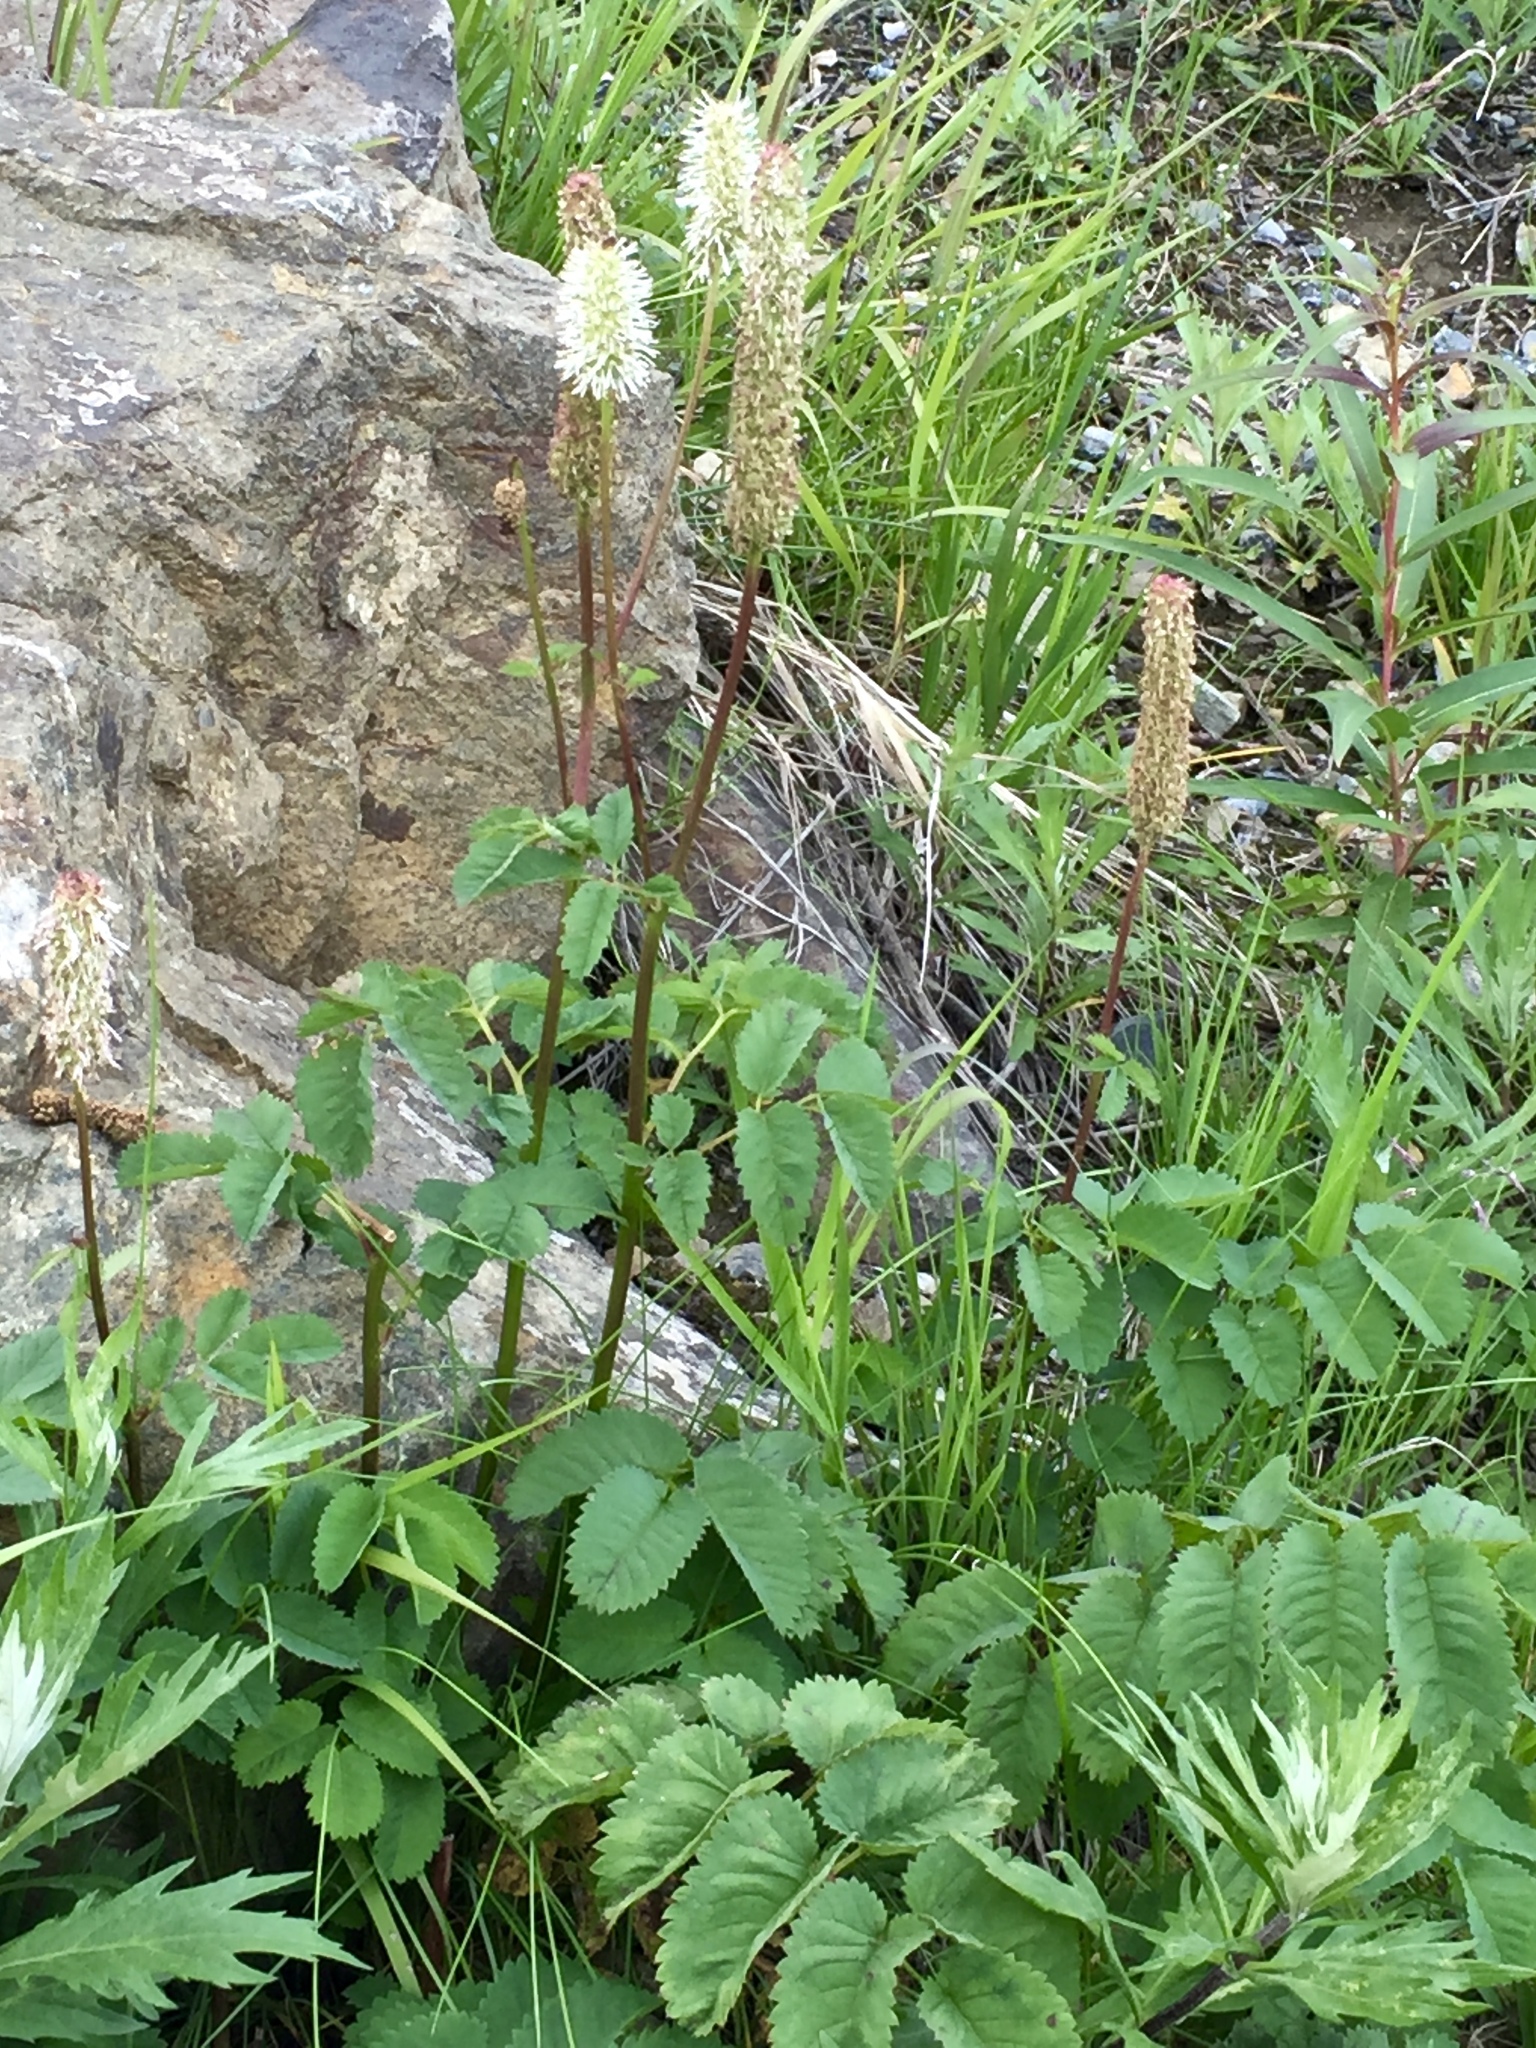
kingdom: Plantae
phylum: Tracheophyta
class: Magnoliopsida
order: Rosales
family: Rosaceae
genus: Sanguisorba
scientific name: Sanguisorba stipulata
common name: Sitka burnet
